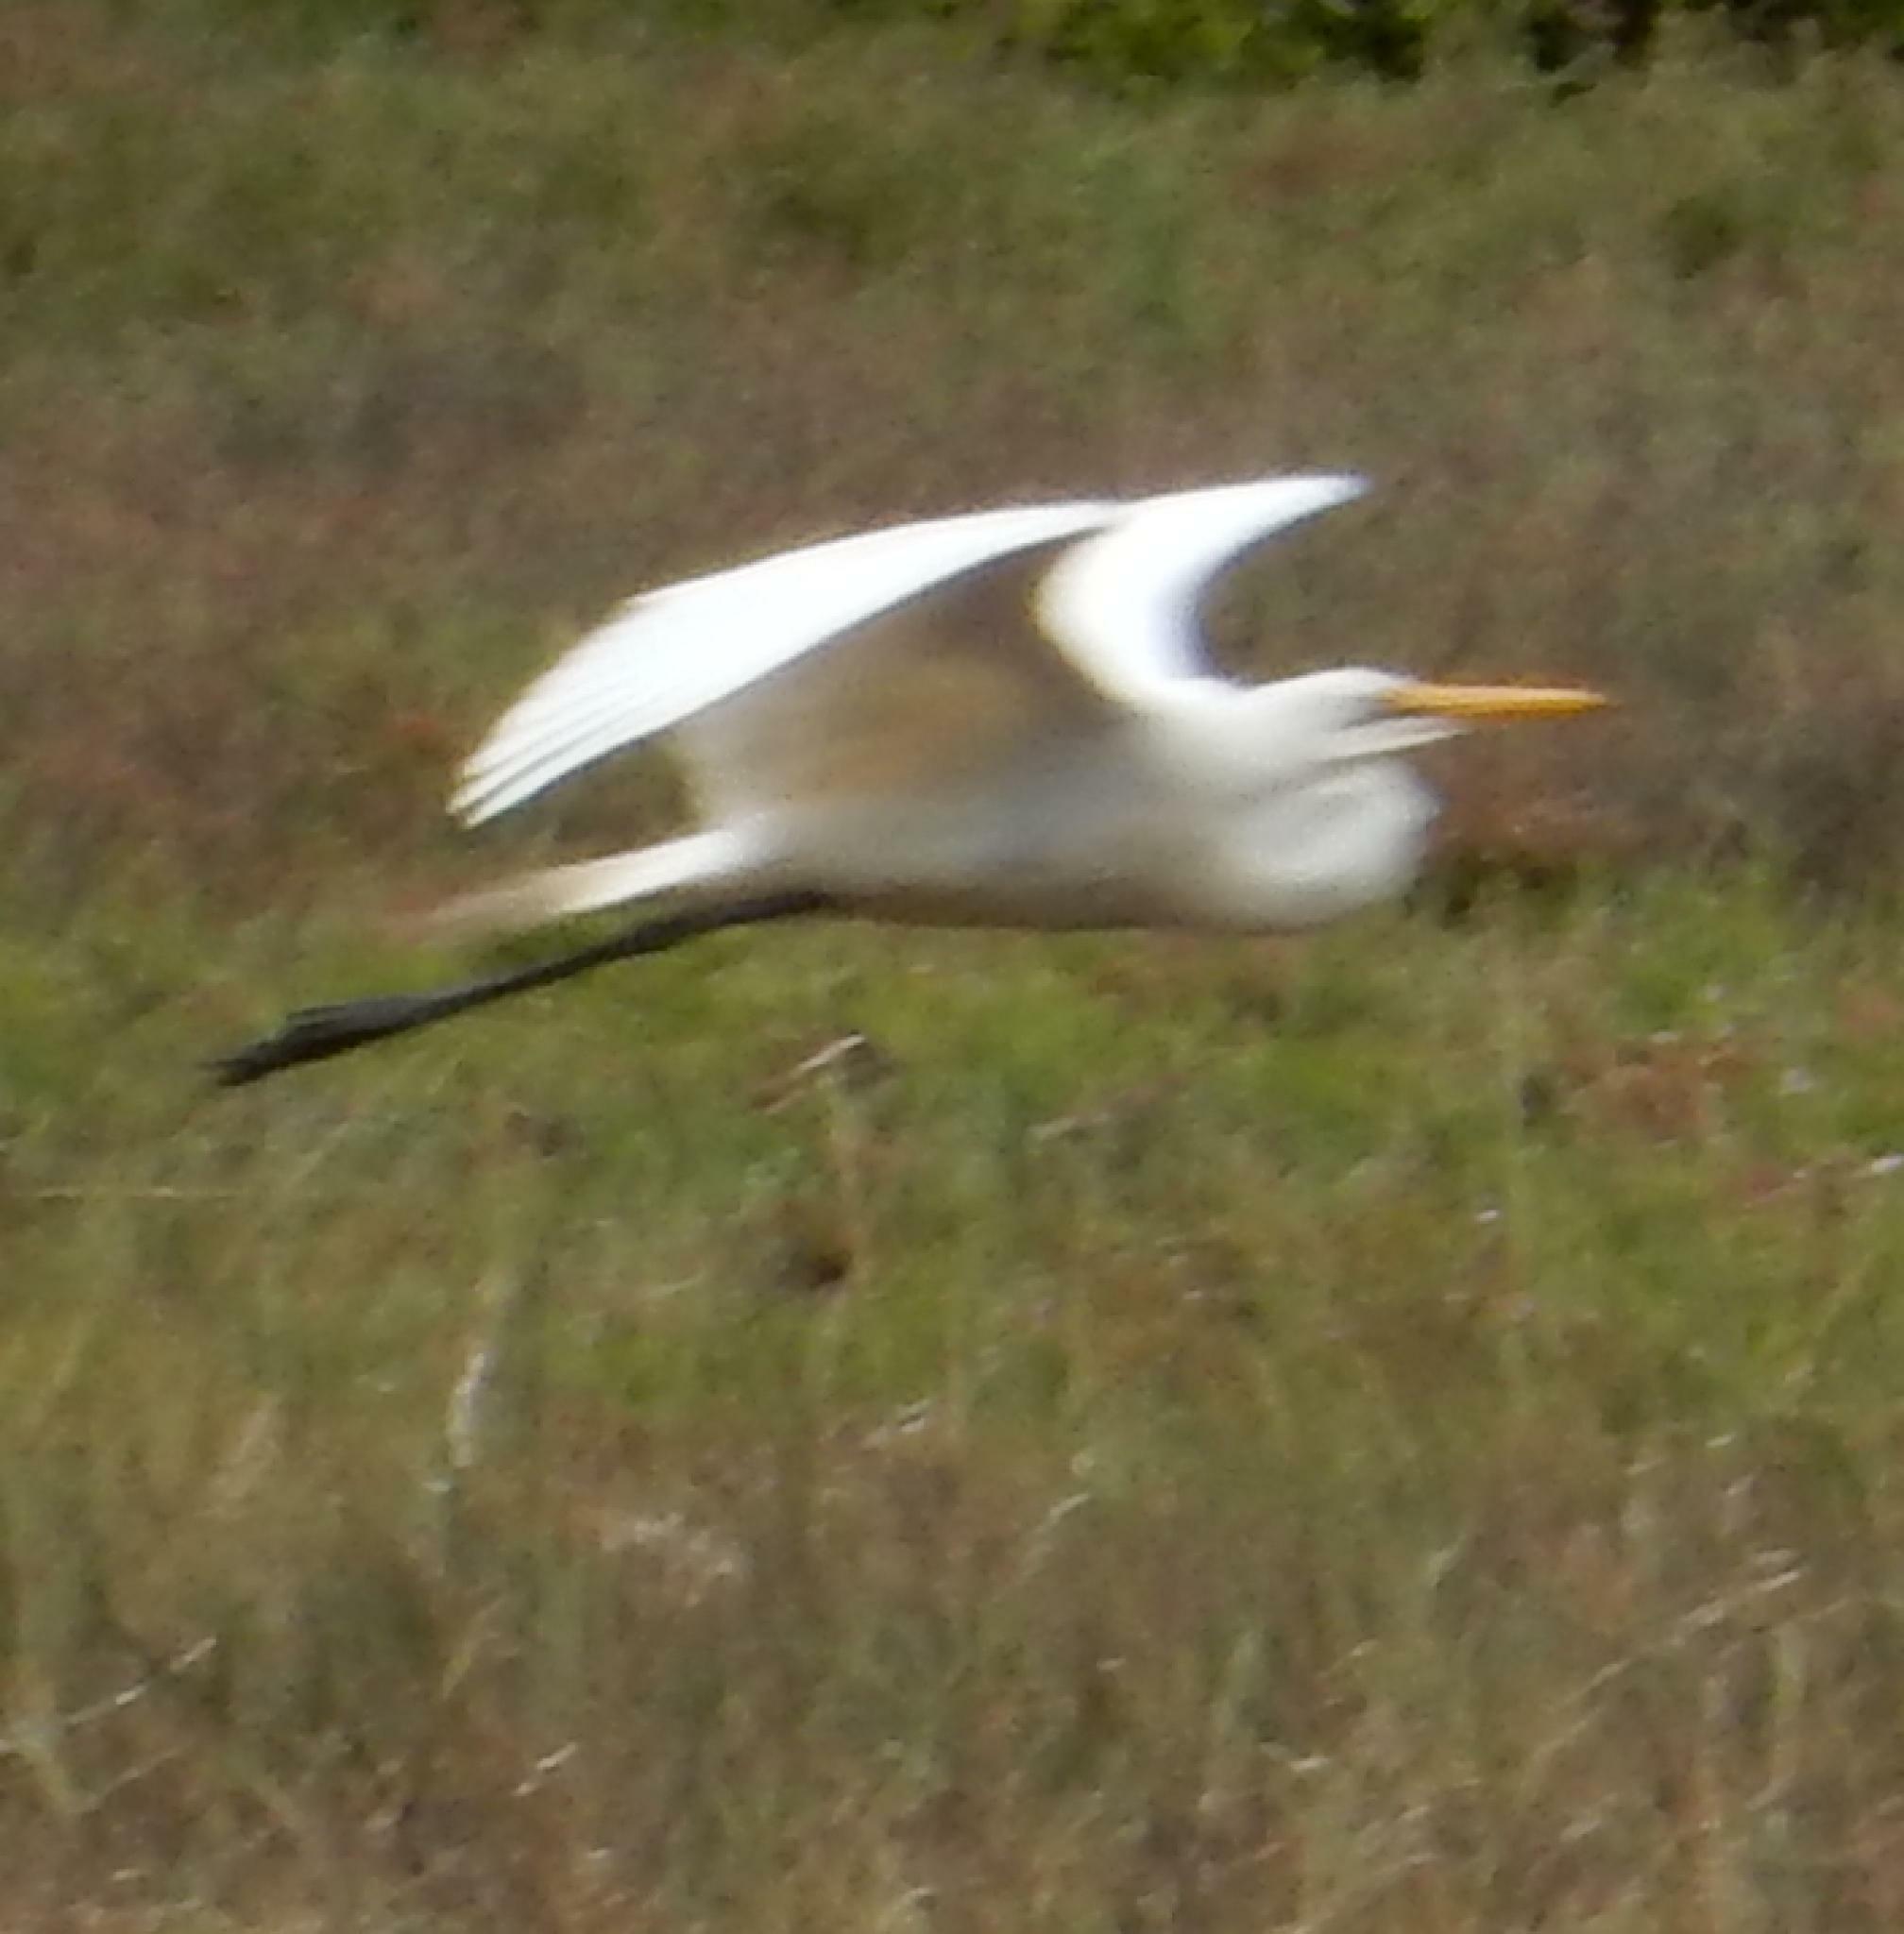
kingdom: Animalia
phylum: Chordata
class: Aves
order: Pelecaniformes
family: Ardeidae
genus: Ardea
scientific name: Ardea alba
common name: Great egret
